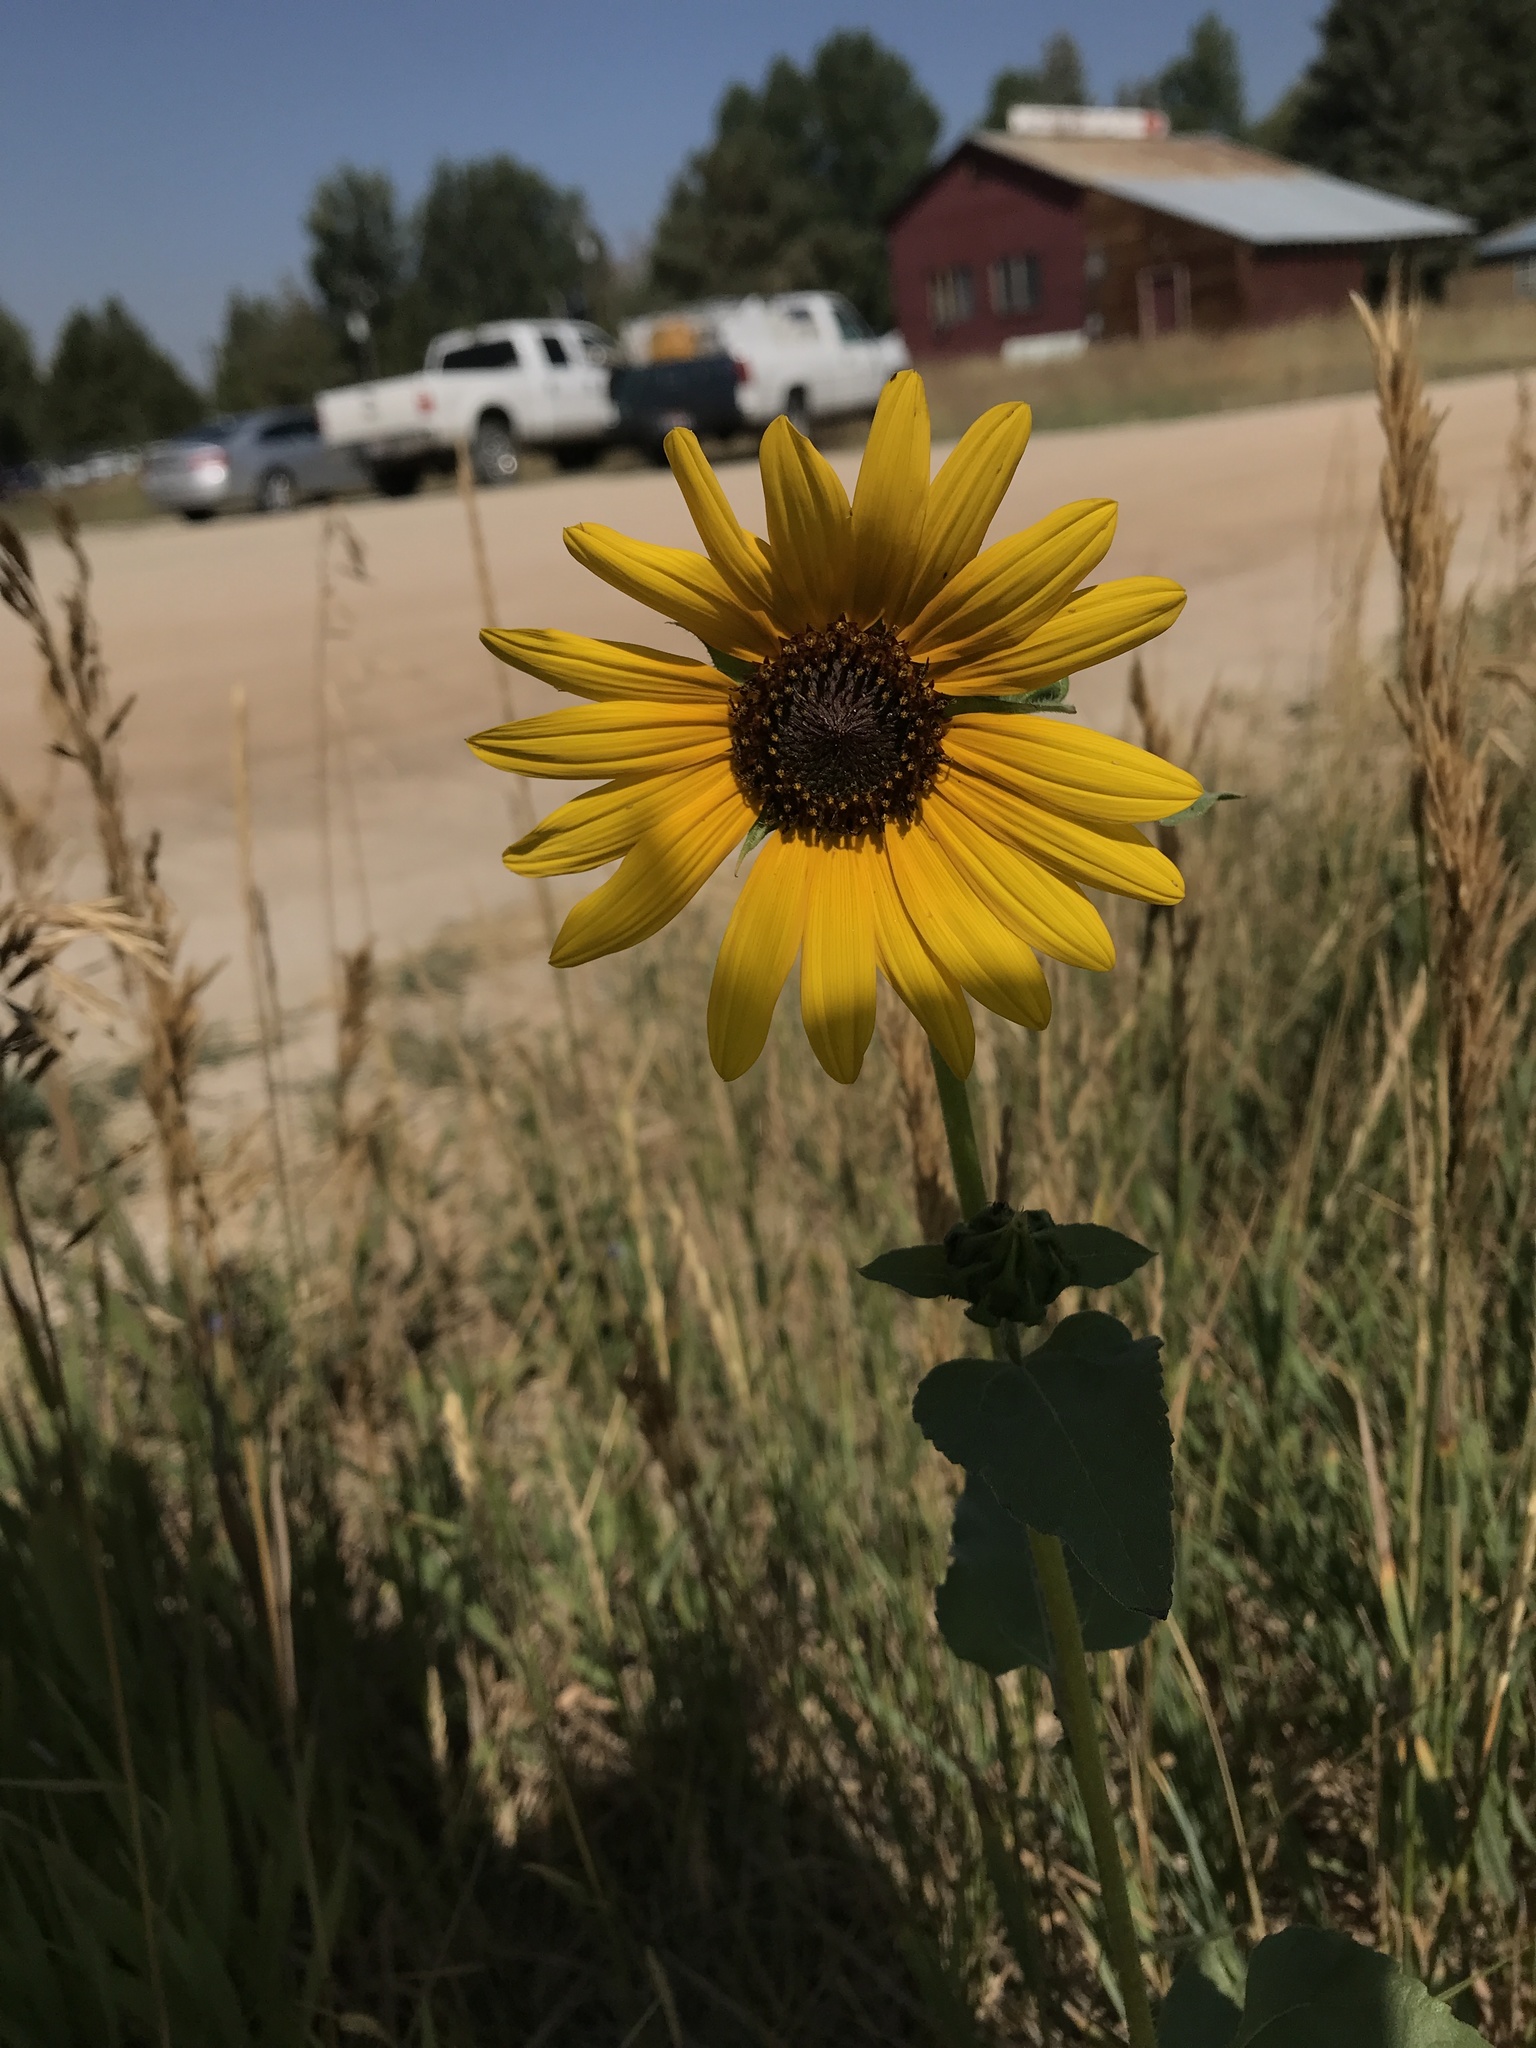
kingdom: Plantae
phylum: Tracheophyta
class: Magnoliopsida
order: Asterales
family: Asteraceae
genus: Helianthus
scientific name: Helianthus annuus
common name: Sunflower
